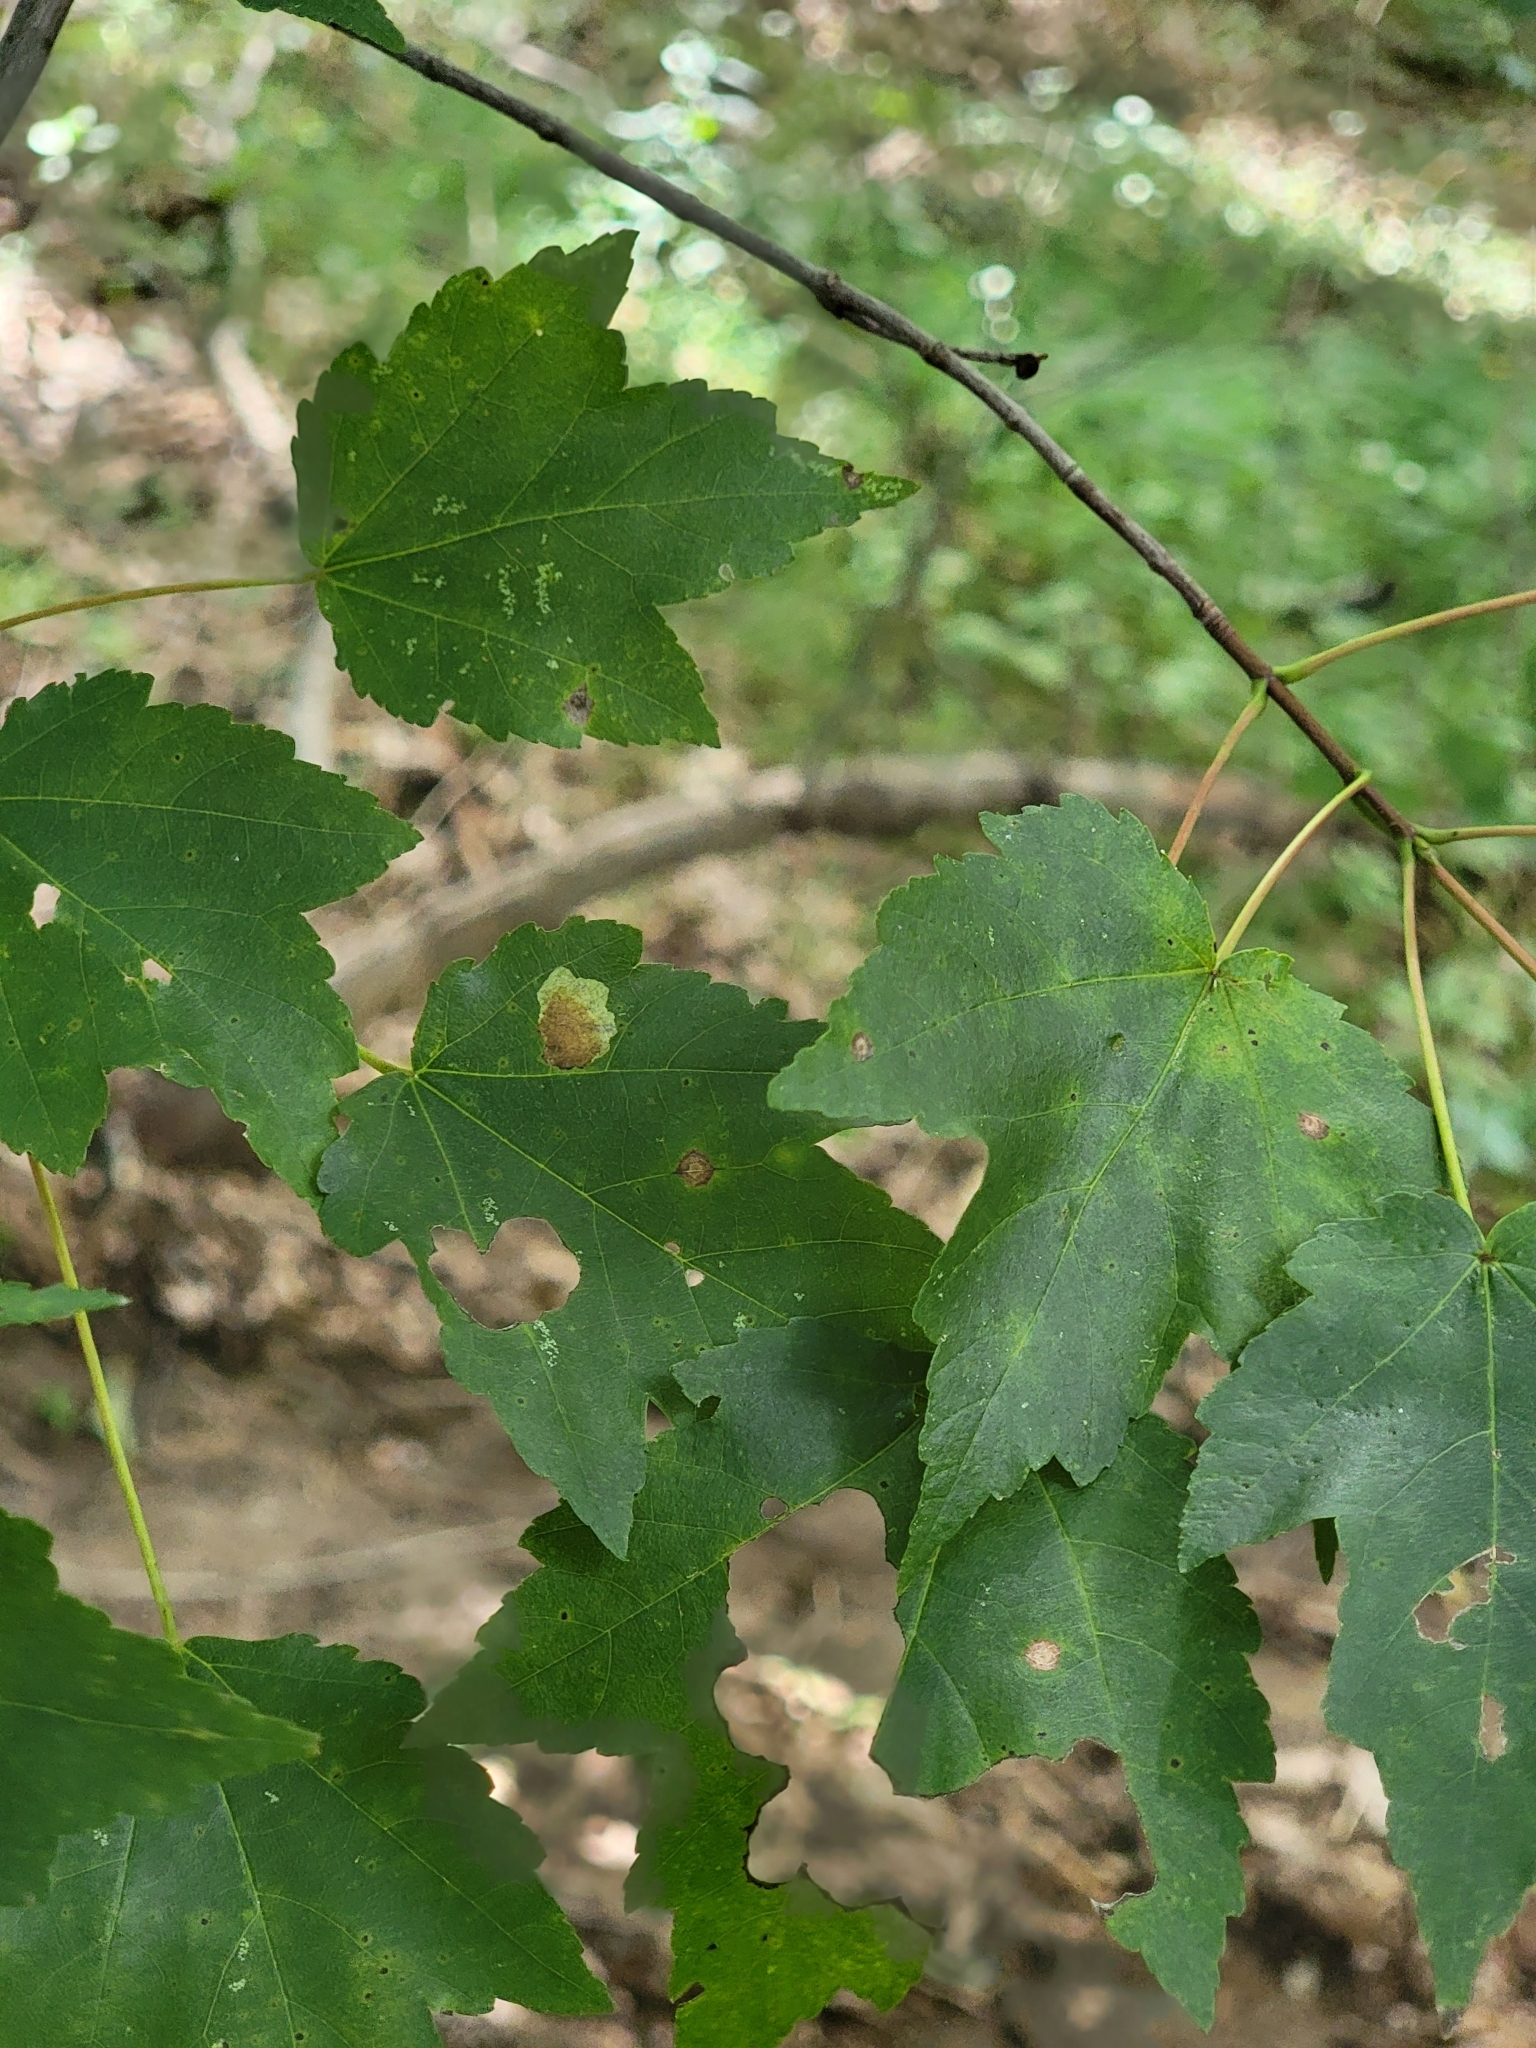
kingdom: Plantae
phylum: Tracheophyta
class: Magnoliopsida
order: Sapindales
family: Sapindaceae
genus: Acer
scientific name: Acer rubrum
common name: Red maple
